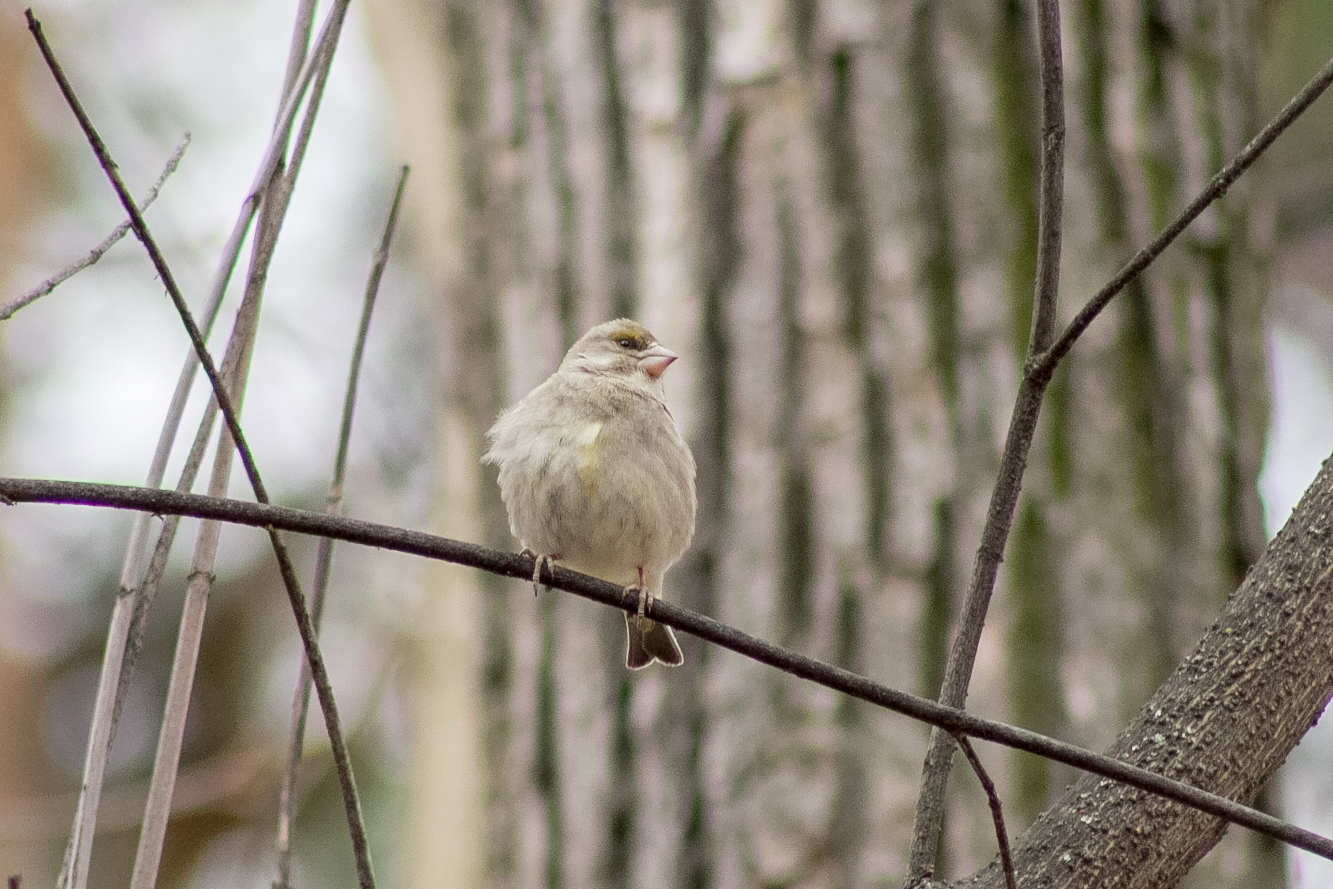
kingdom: Plantae
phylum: Tracheophyta
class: Liliopsida
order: Poales
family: Poaceae
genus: Chloris
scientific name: Chloris chloris
